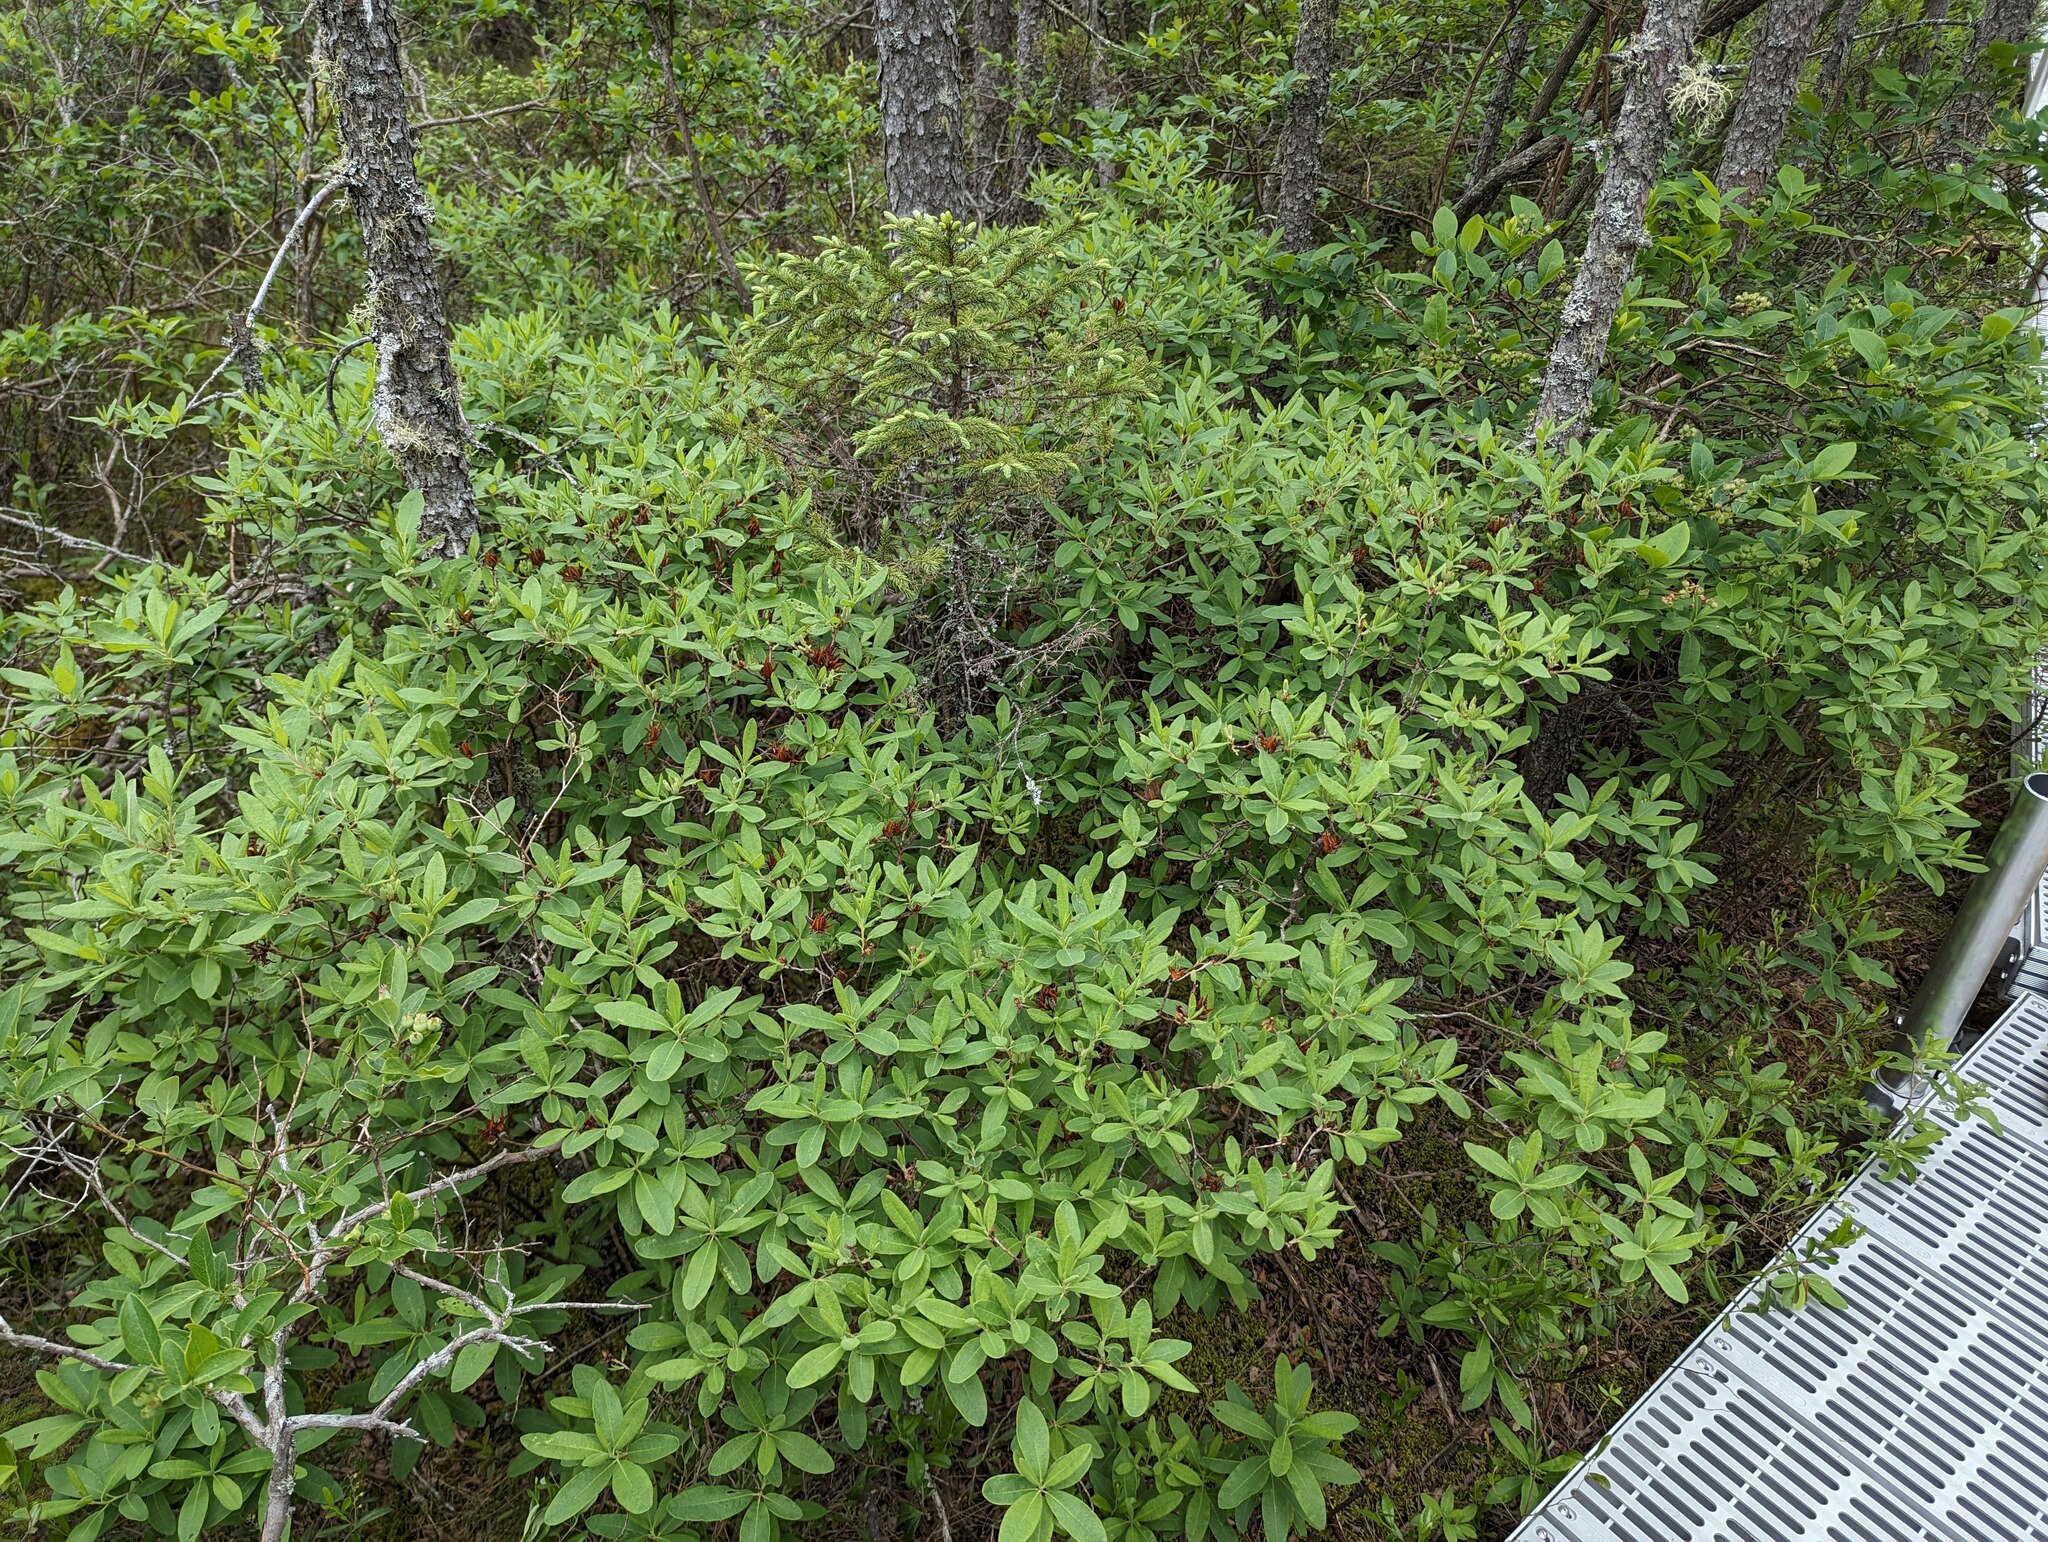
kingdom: Plantae
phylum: Tracheophyta
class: Magnoliopsida
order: Ericales
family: Ericaceae
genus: Rhododendron
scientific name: Rhododendron canadense
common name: Rhodora
